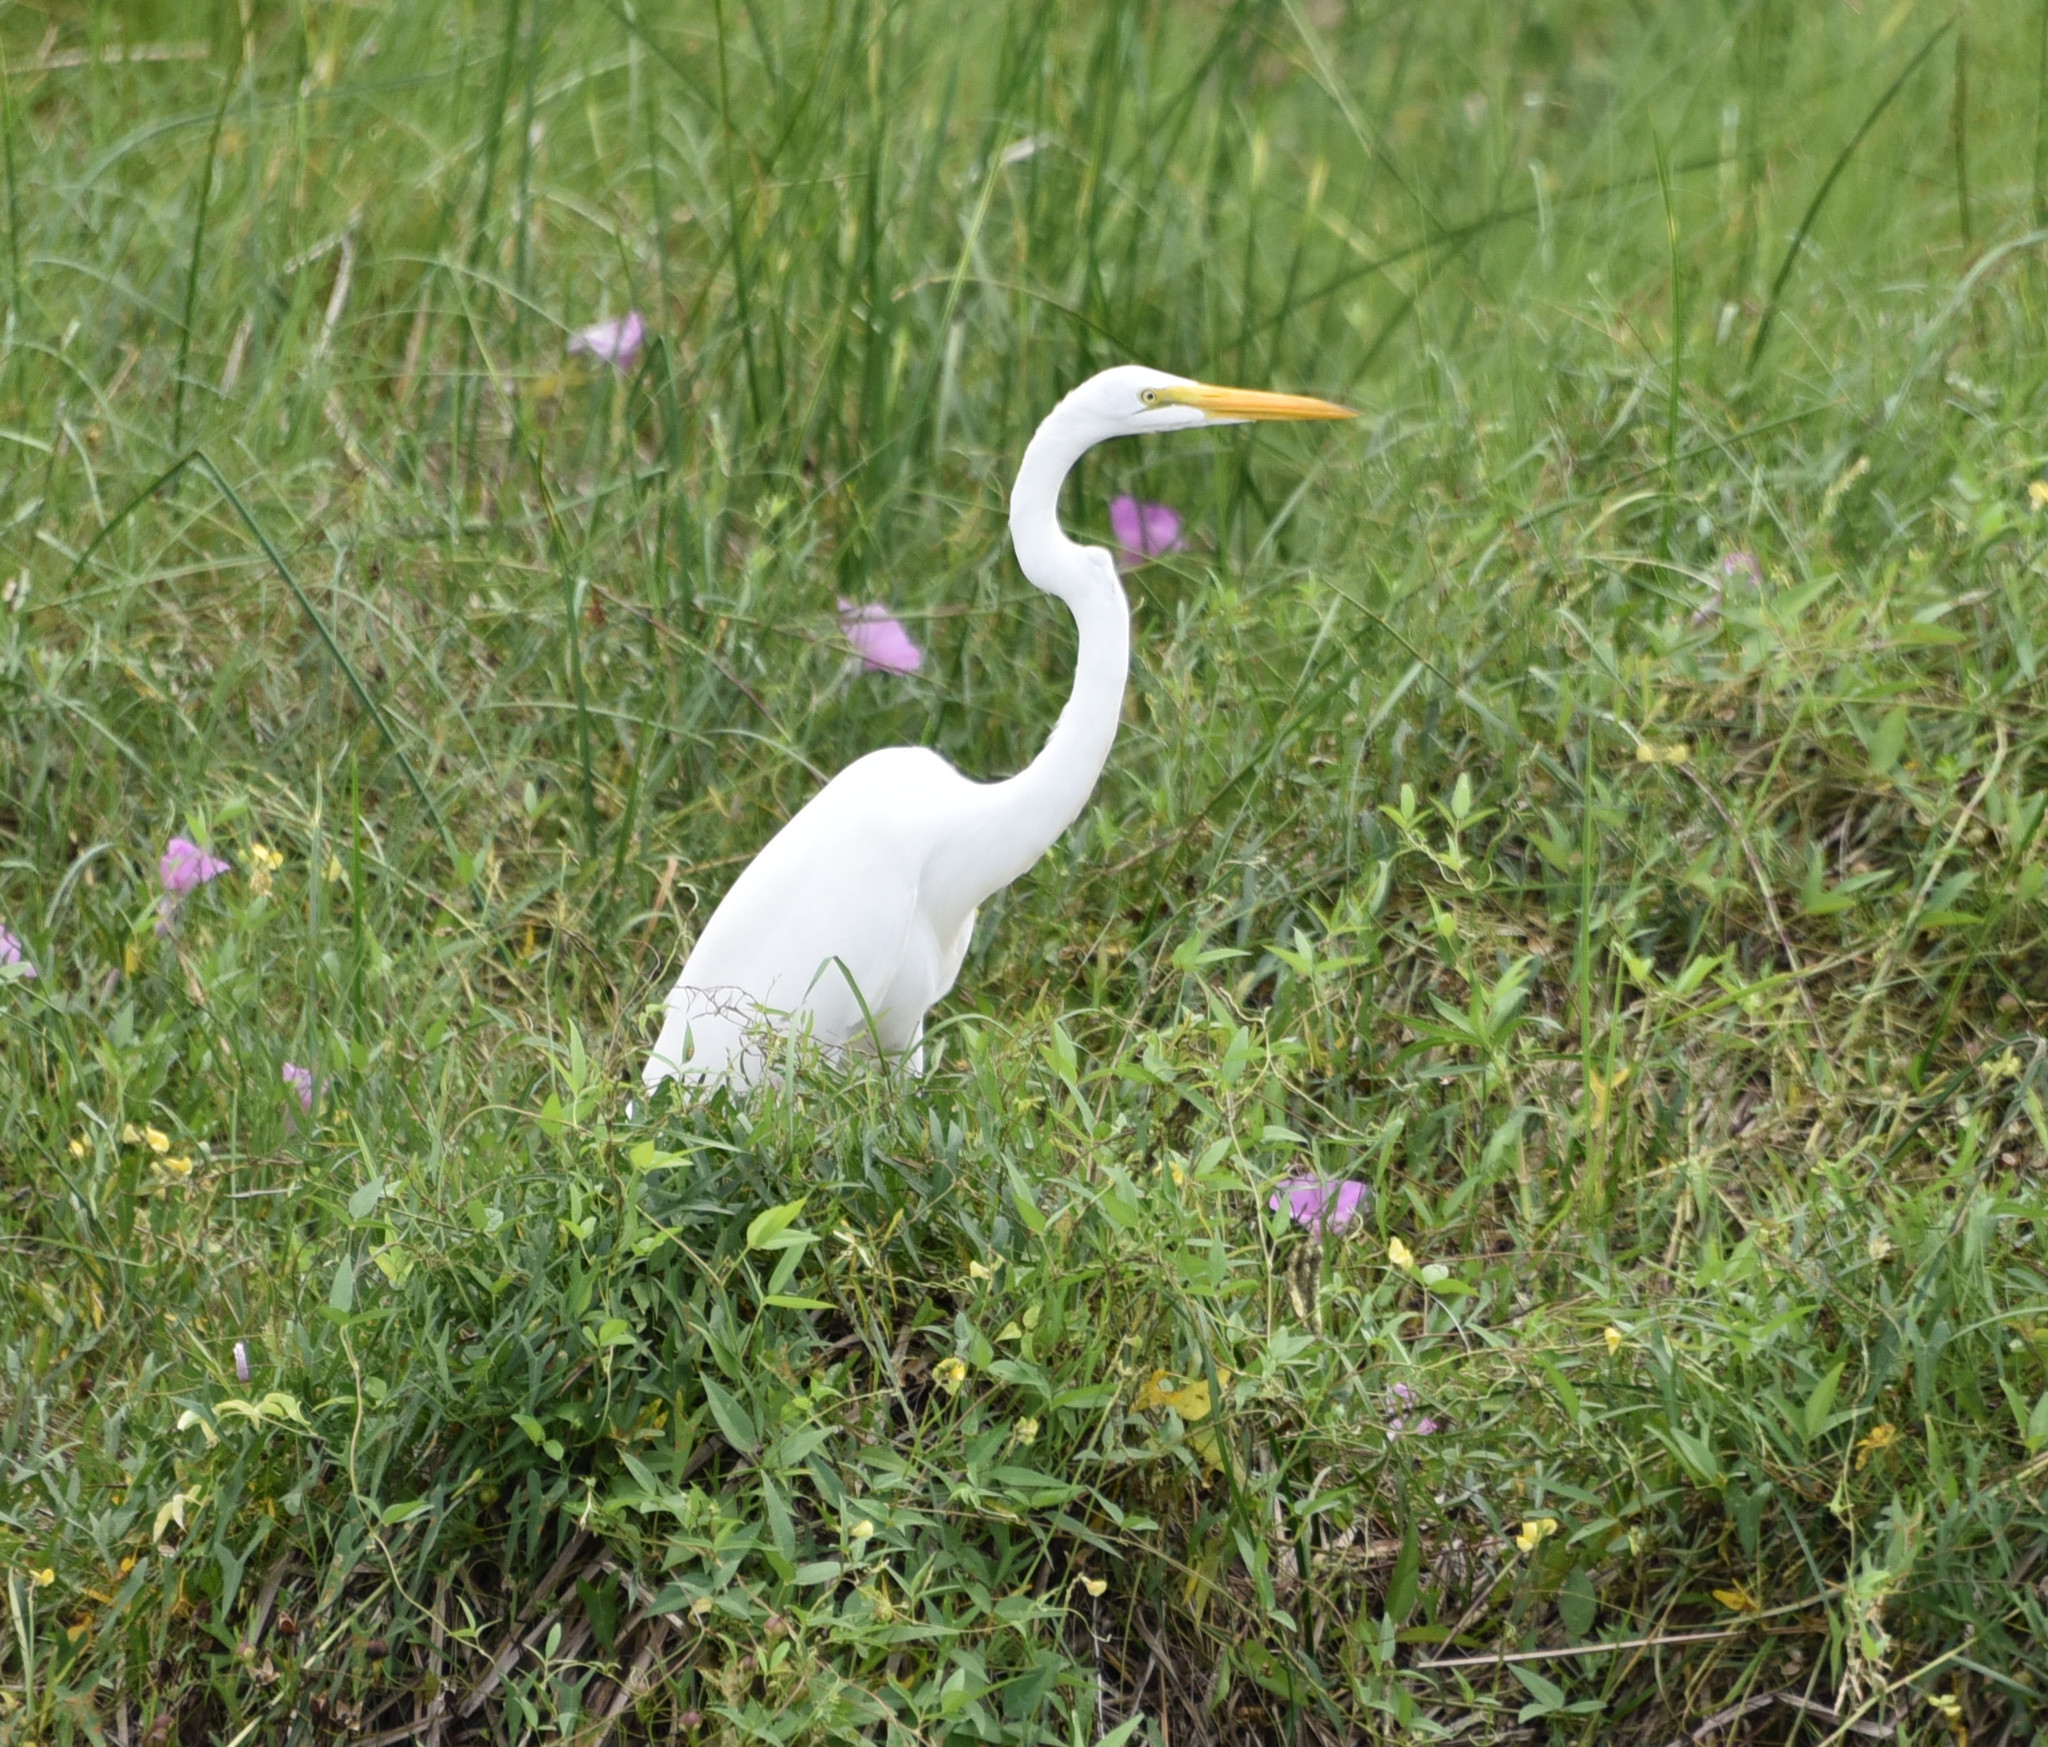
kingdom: Animalia
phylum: Chordata
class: Aves
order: Pelecaniformes
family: Ardeidae
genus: Ardea
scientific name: Ardea alba
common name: Great egret
